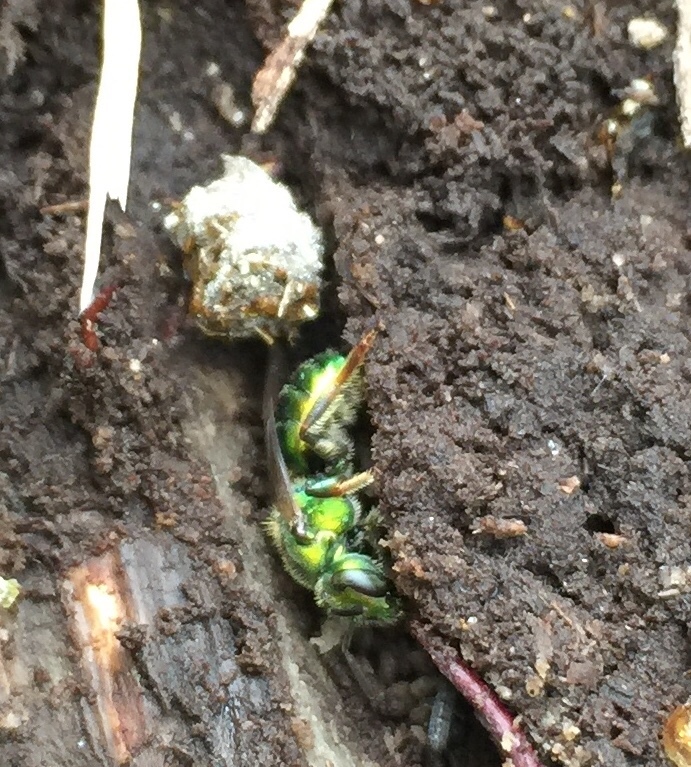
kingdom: Animalia
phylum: Arthropoda
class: Insecta
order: Hymenoptera
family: Halictidae
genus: Augochlora
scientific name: Augochlora pura
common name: Pure green sweat bee
